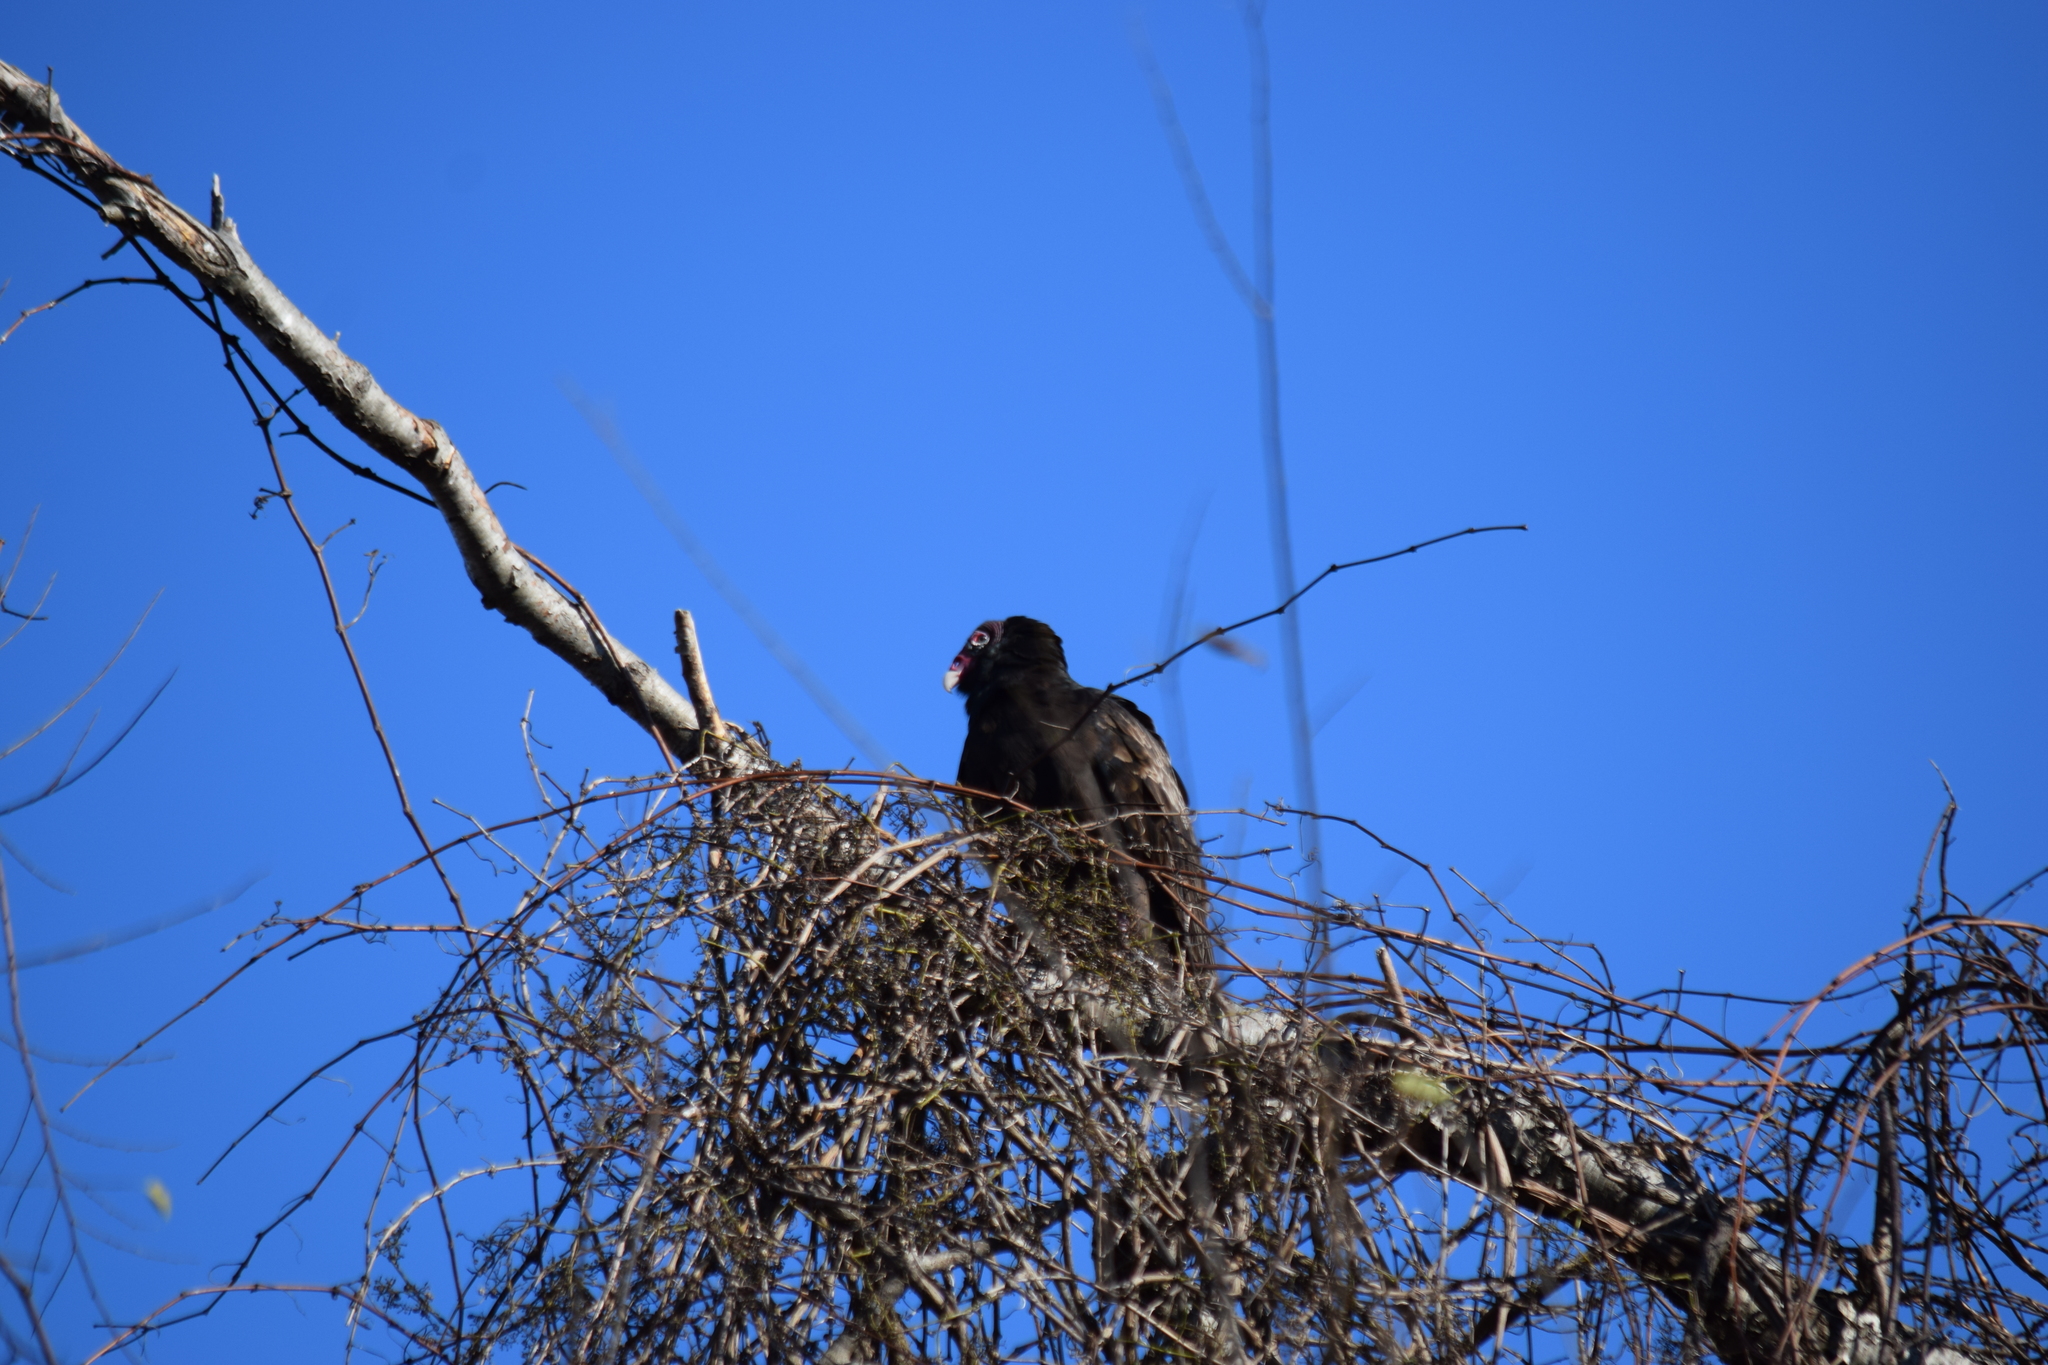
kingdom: Animalia
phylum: Chordata
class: Aves
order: Accipitriformes
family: Cathartidae
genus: Cathartes
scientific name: Cathartes aura
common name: Turkey vulture
